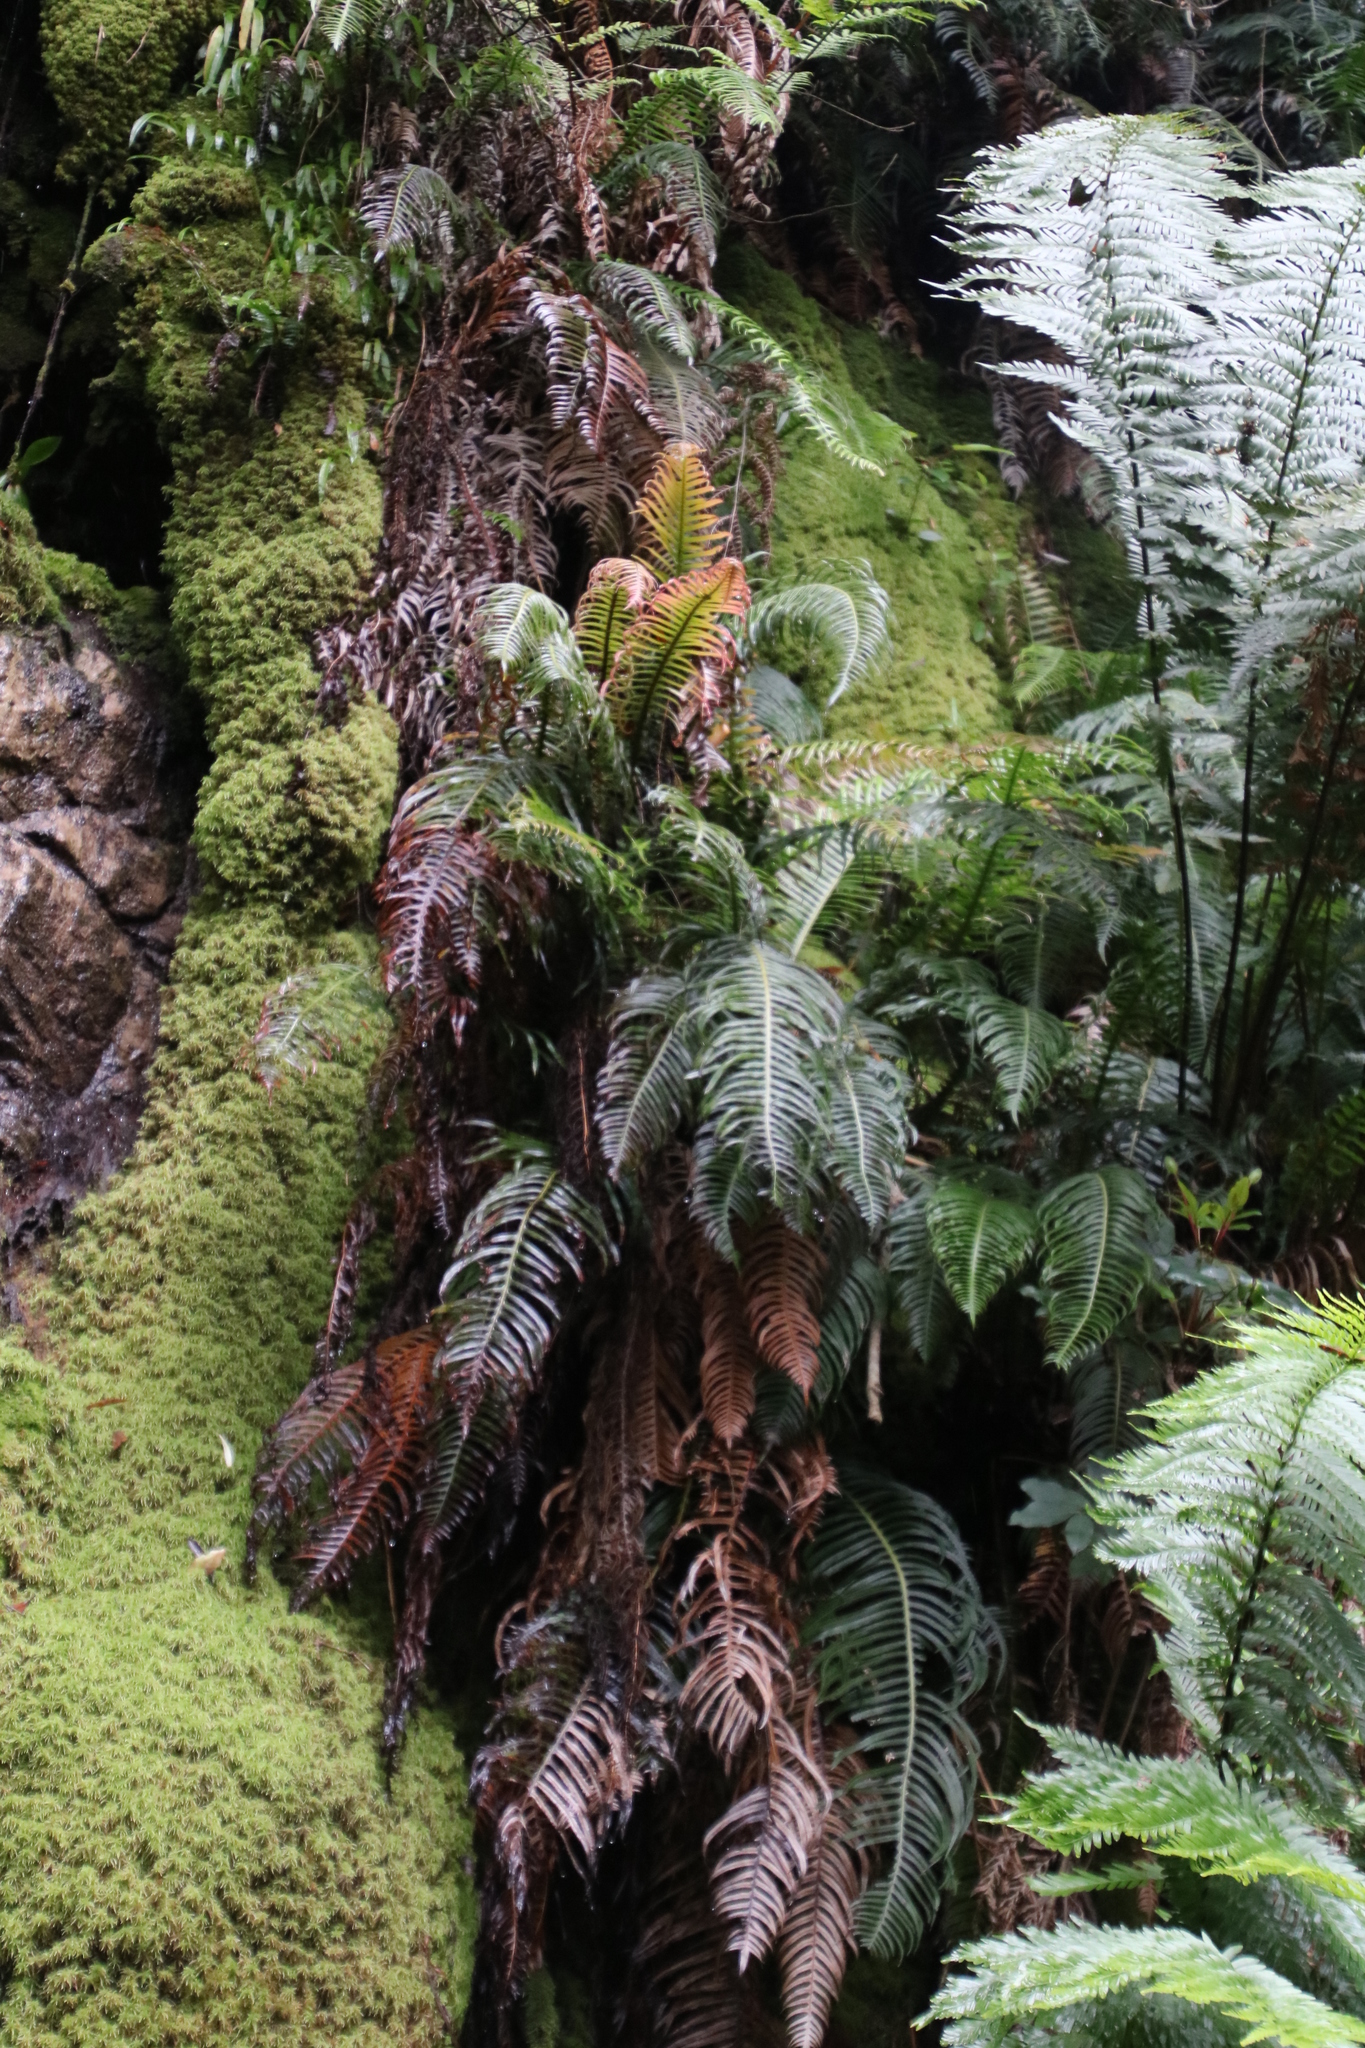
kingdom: Plantae
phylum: Tracheophyta
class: Polypodiopsida
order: Polypodiales
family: Blechnaceae
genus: Lomaridium
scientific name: Lomaridium attenuatum
